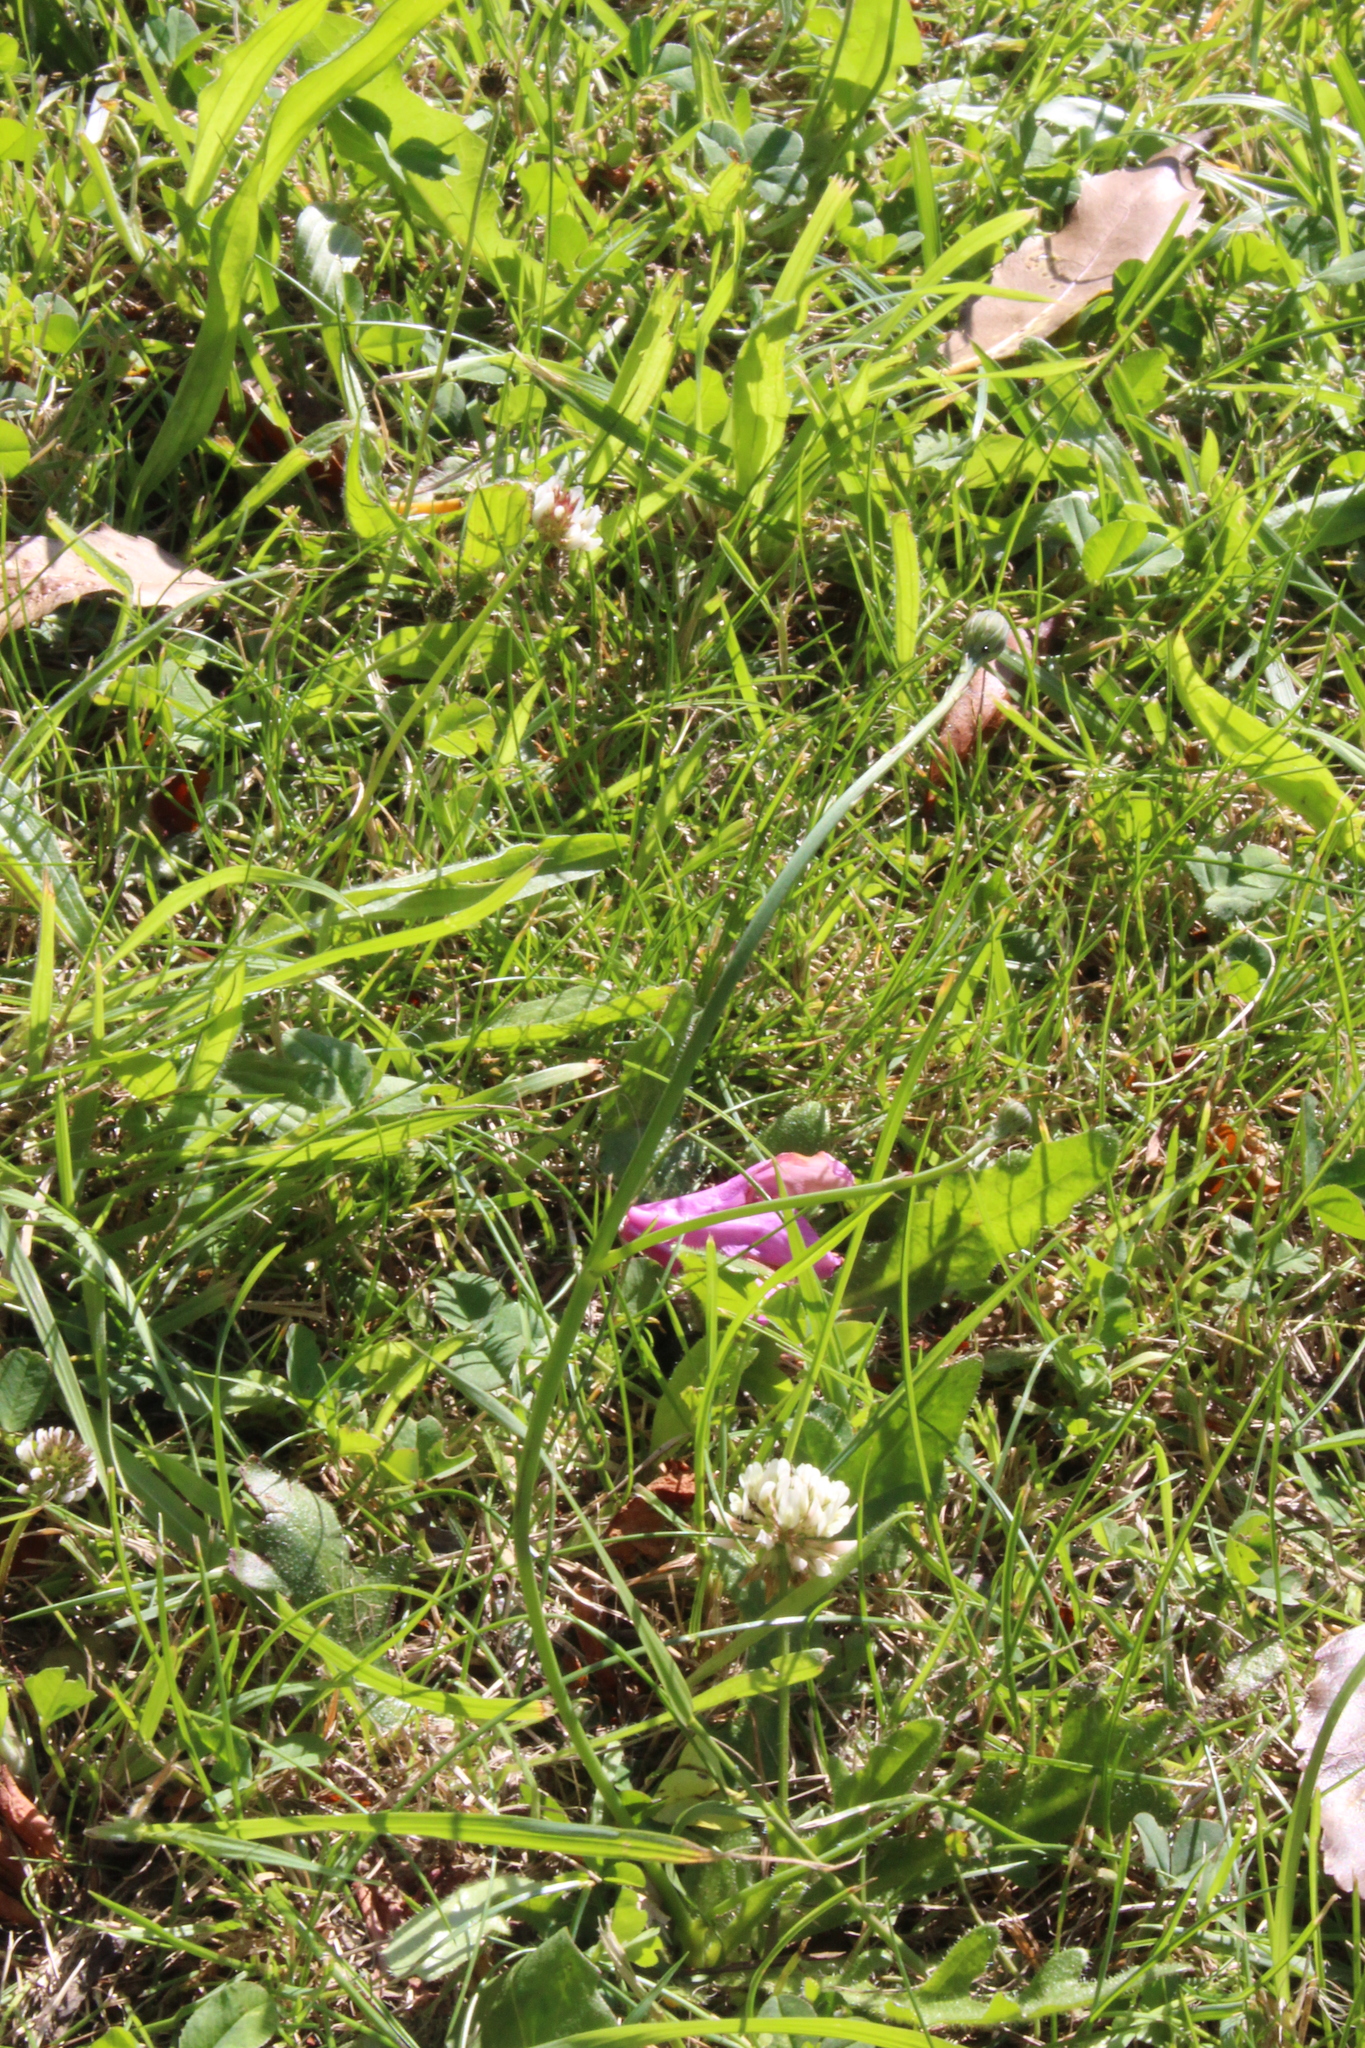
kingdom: Plantae
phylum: Tracheophyta
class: Magnoliopsida
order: Asterales
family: Asteraceae
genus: Hypochaeris
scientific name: Hypochaeris radicata
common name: Flatweed
